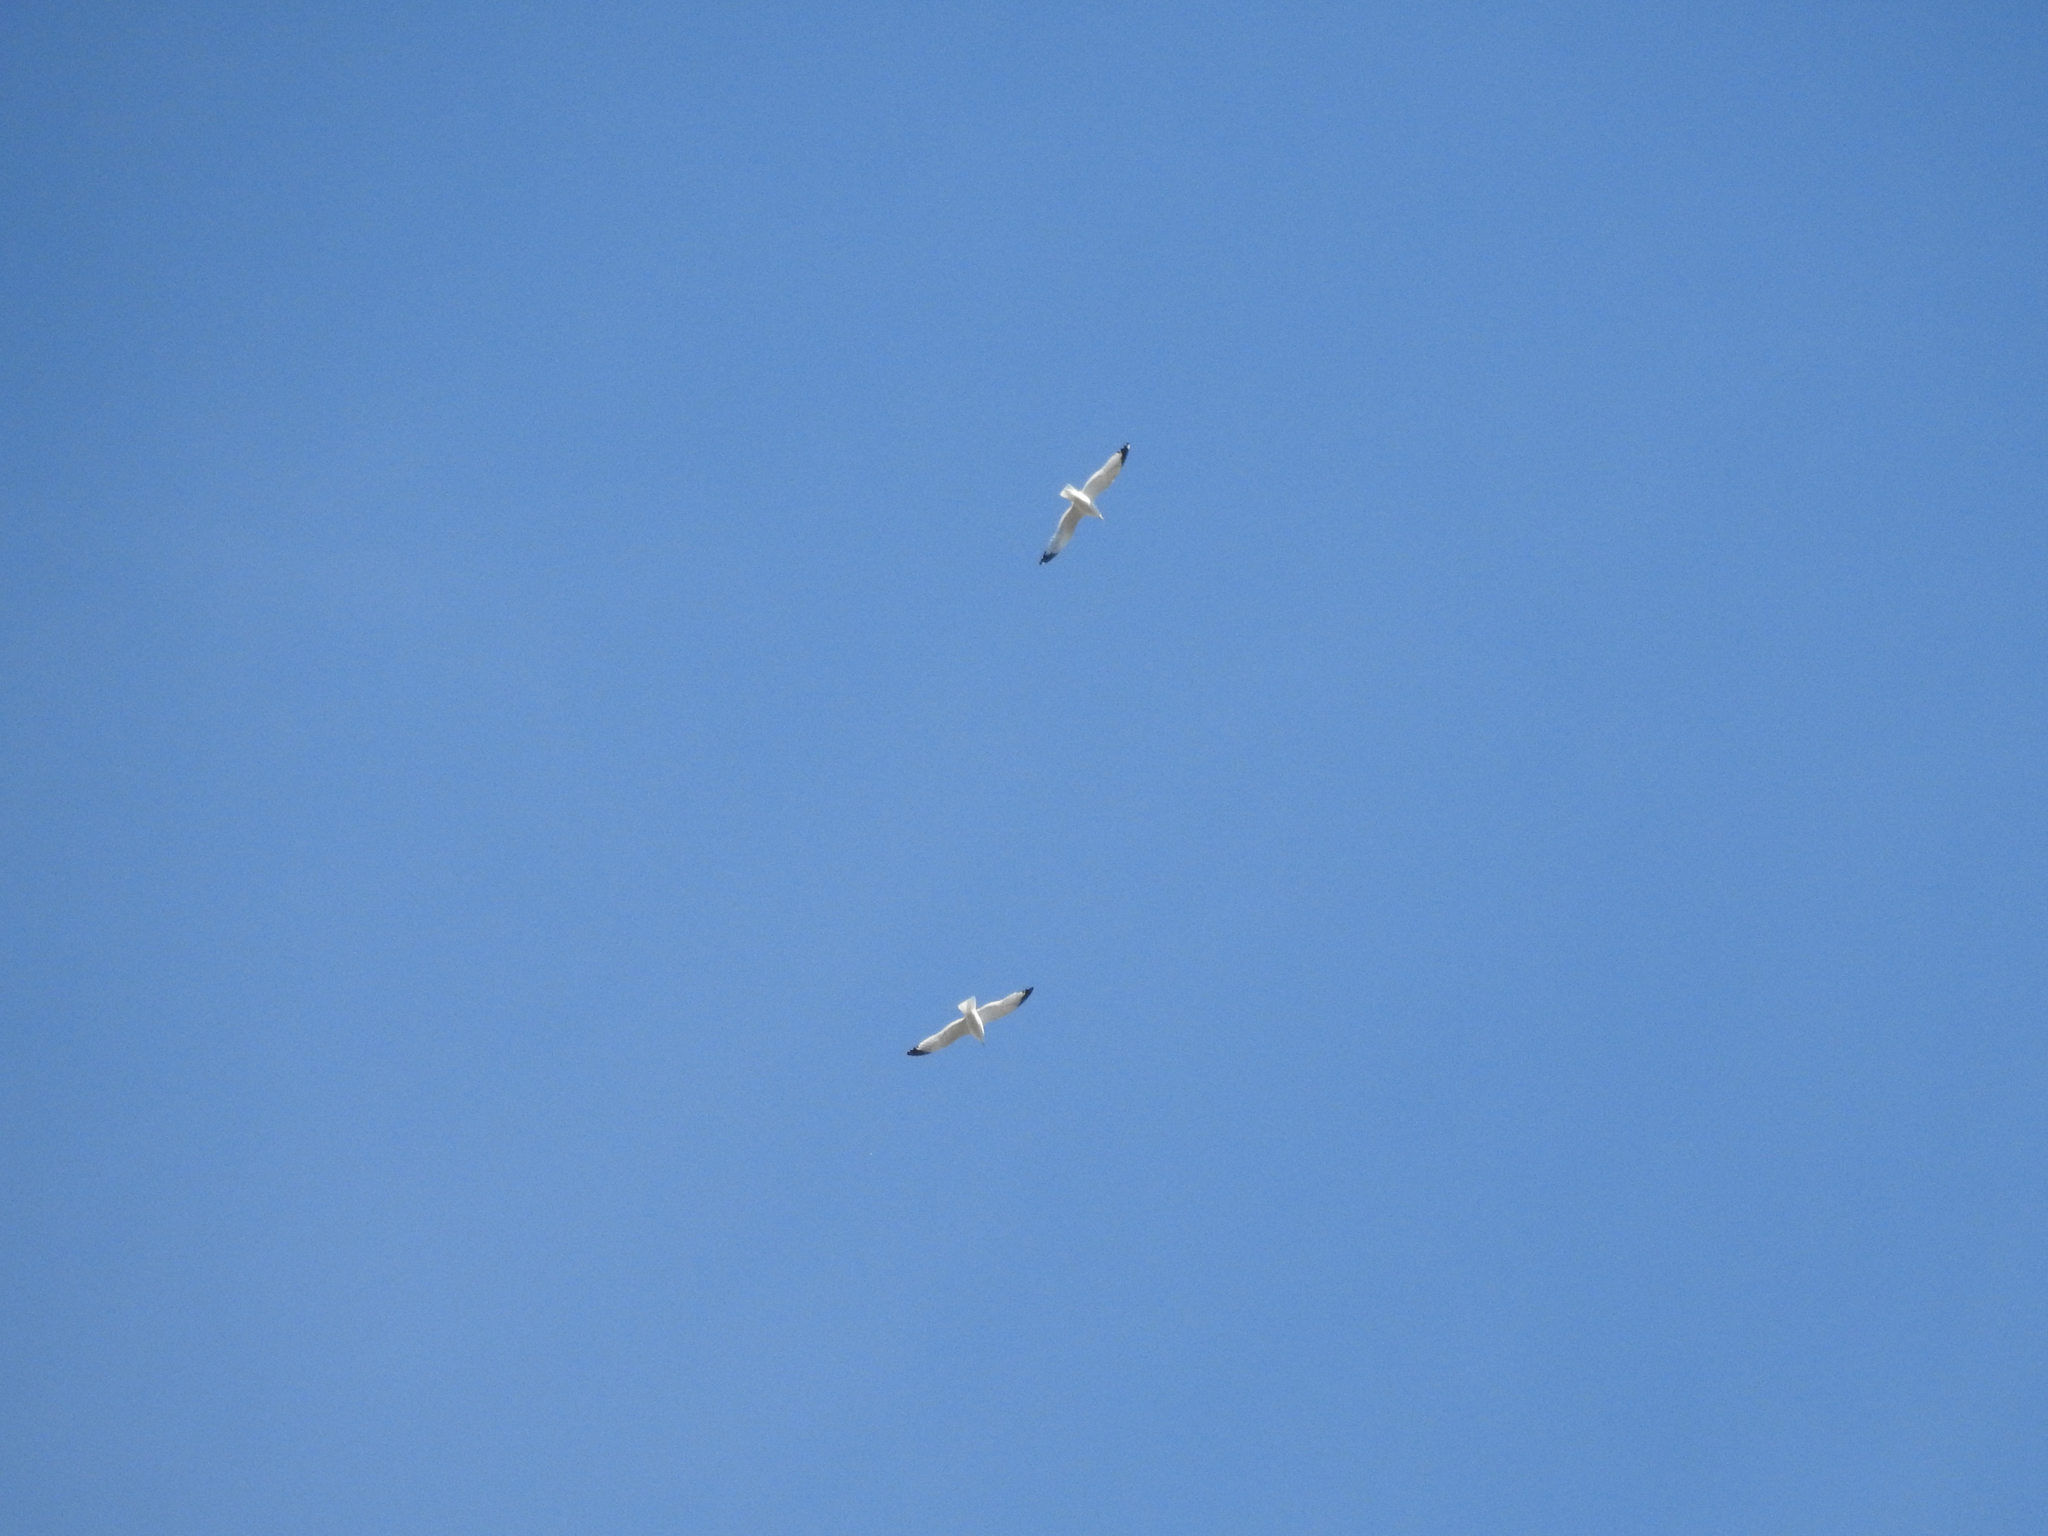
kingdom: Animalia
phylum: Chordata
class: Aves
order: Charadriiformes
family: Laridae
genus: Larus
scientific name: Larus delawarensis
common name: Ring-billed gull
